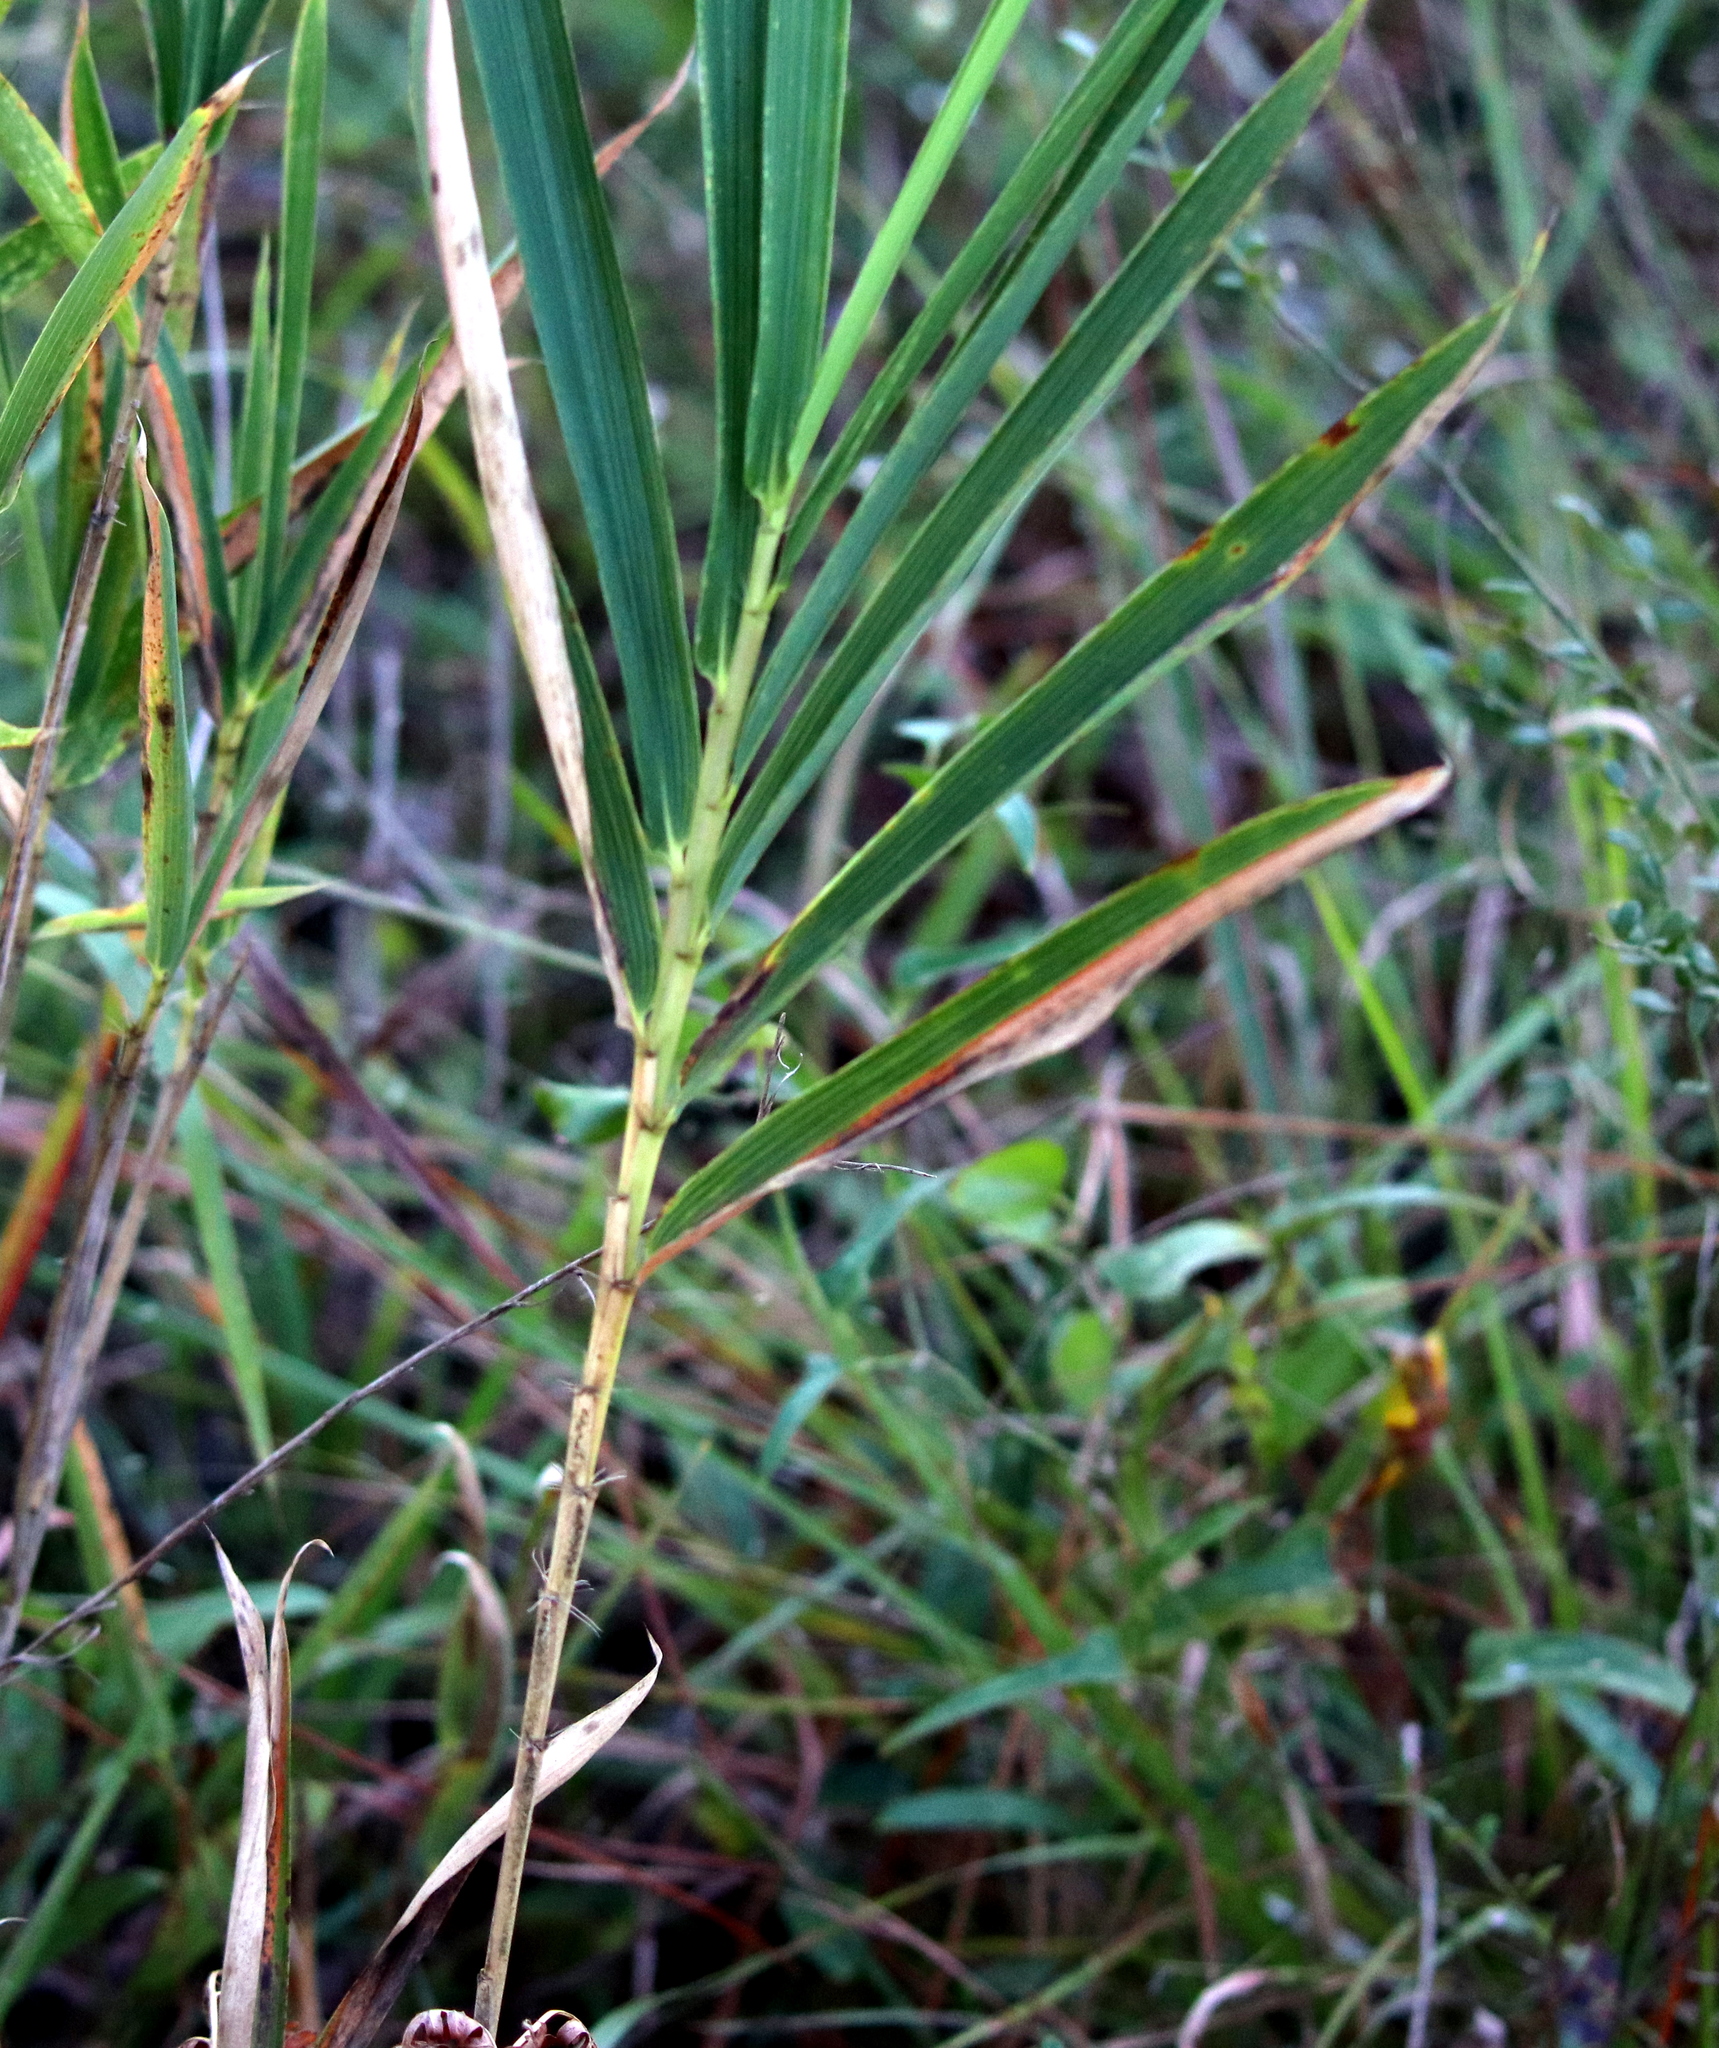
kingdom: Plantae
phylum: Tracheophyta
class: Liliopsida
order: Poales
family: Poaceae
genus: Arundinaria
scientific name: Arundinaria tecta
